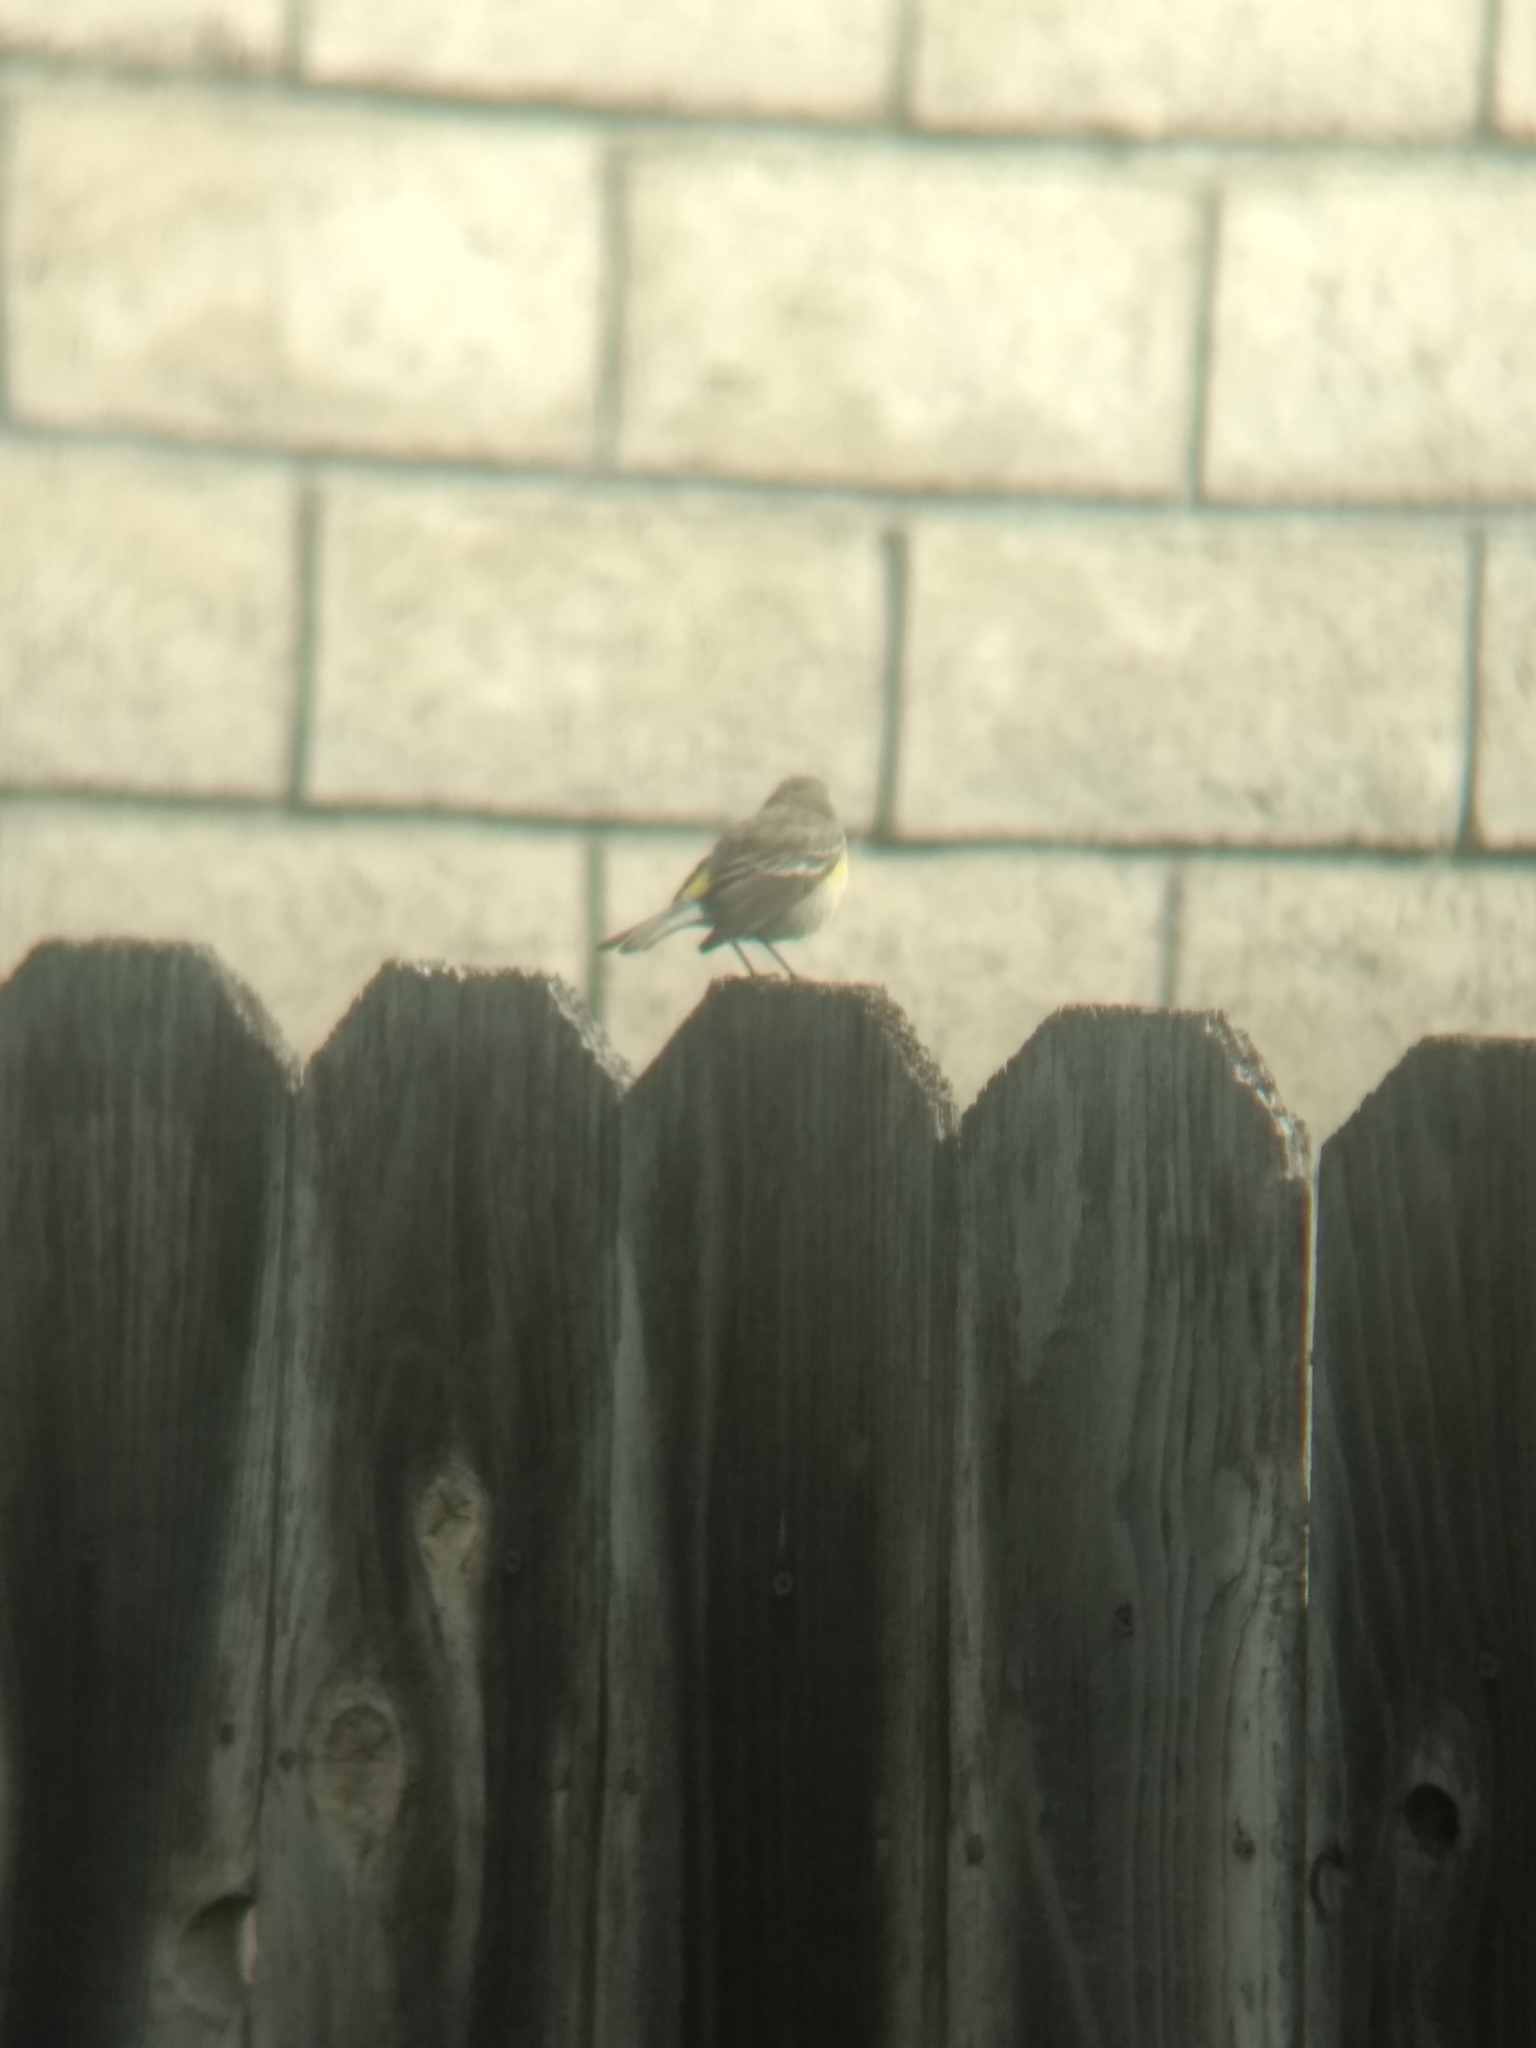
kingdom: Animalia
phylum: Chordata
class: Aves
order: Passeriformes
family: Parulidae
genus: Setophaga
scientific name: Setophaga coronata
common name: Myrtle warbler
